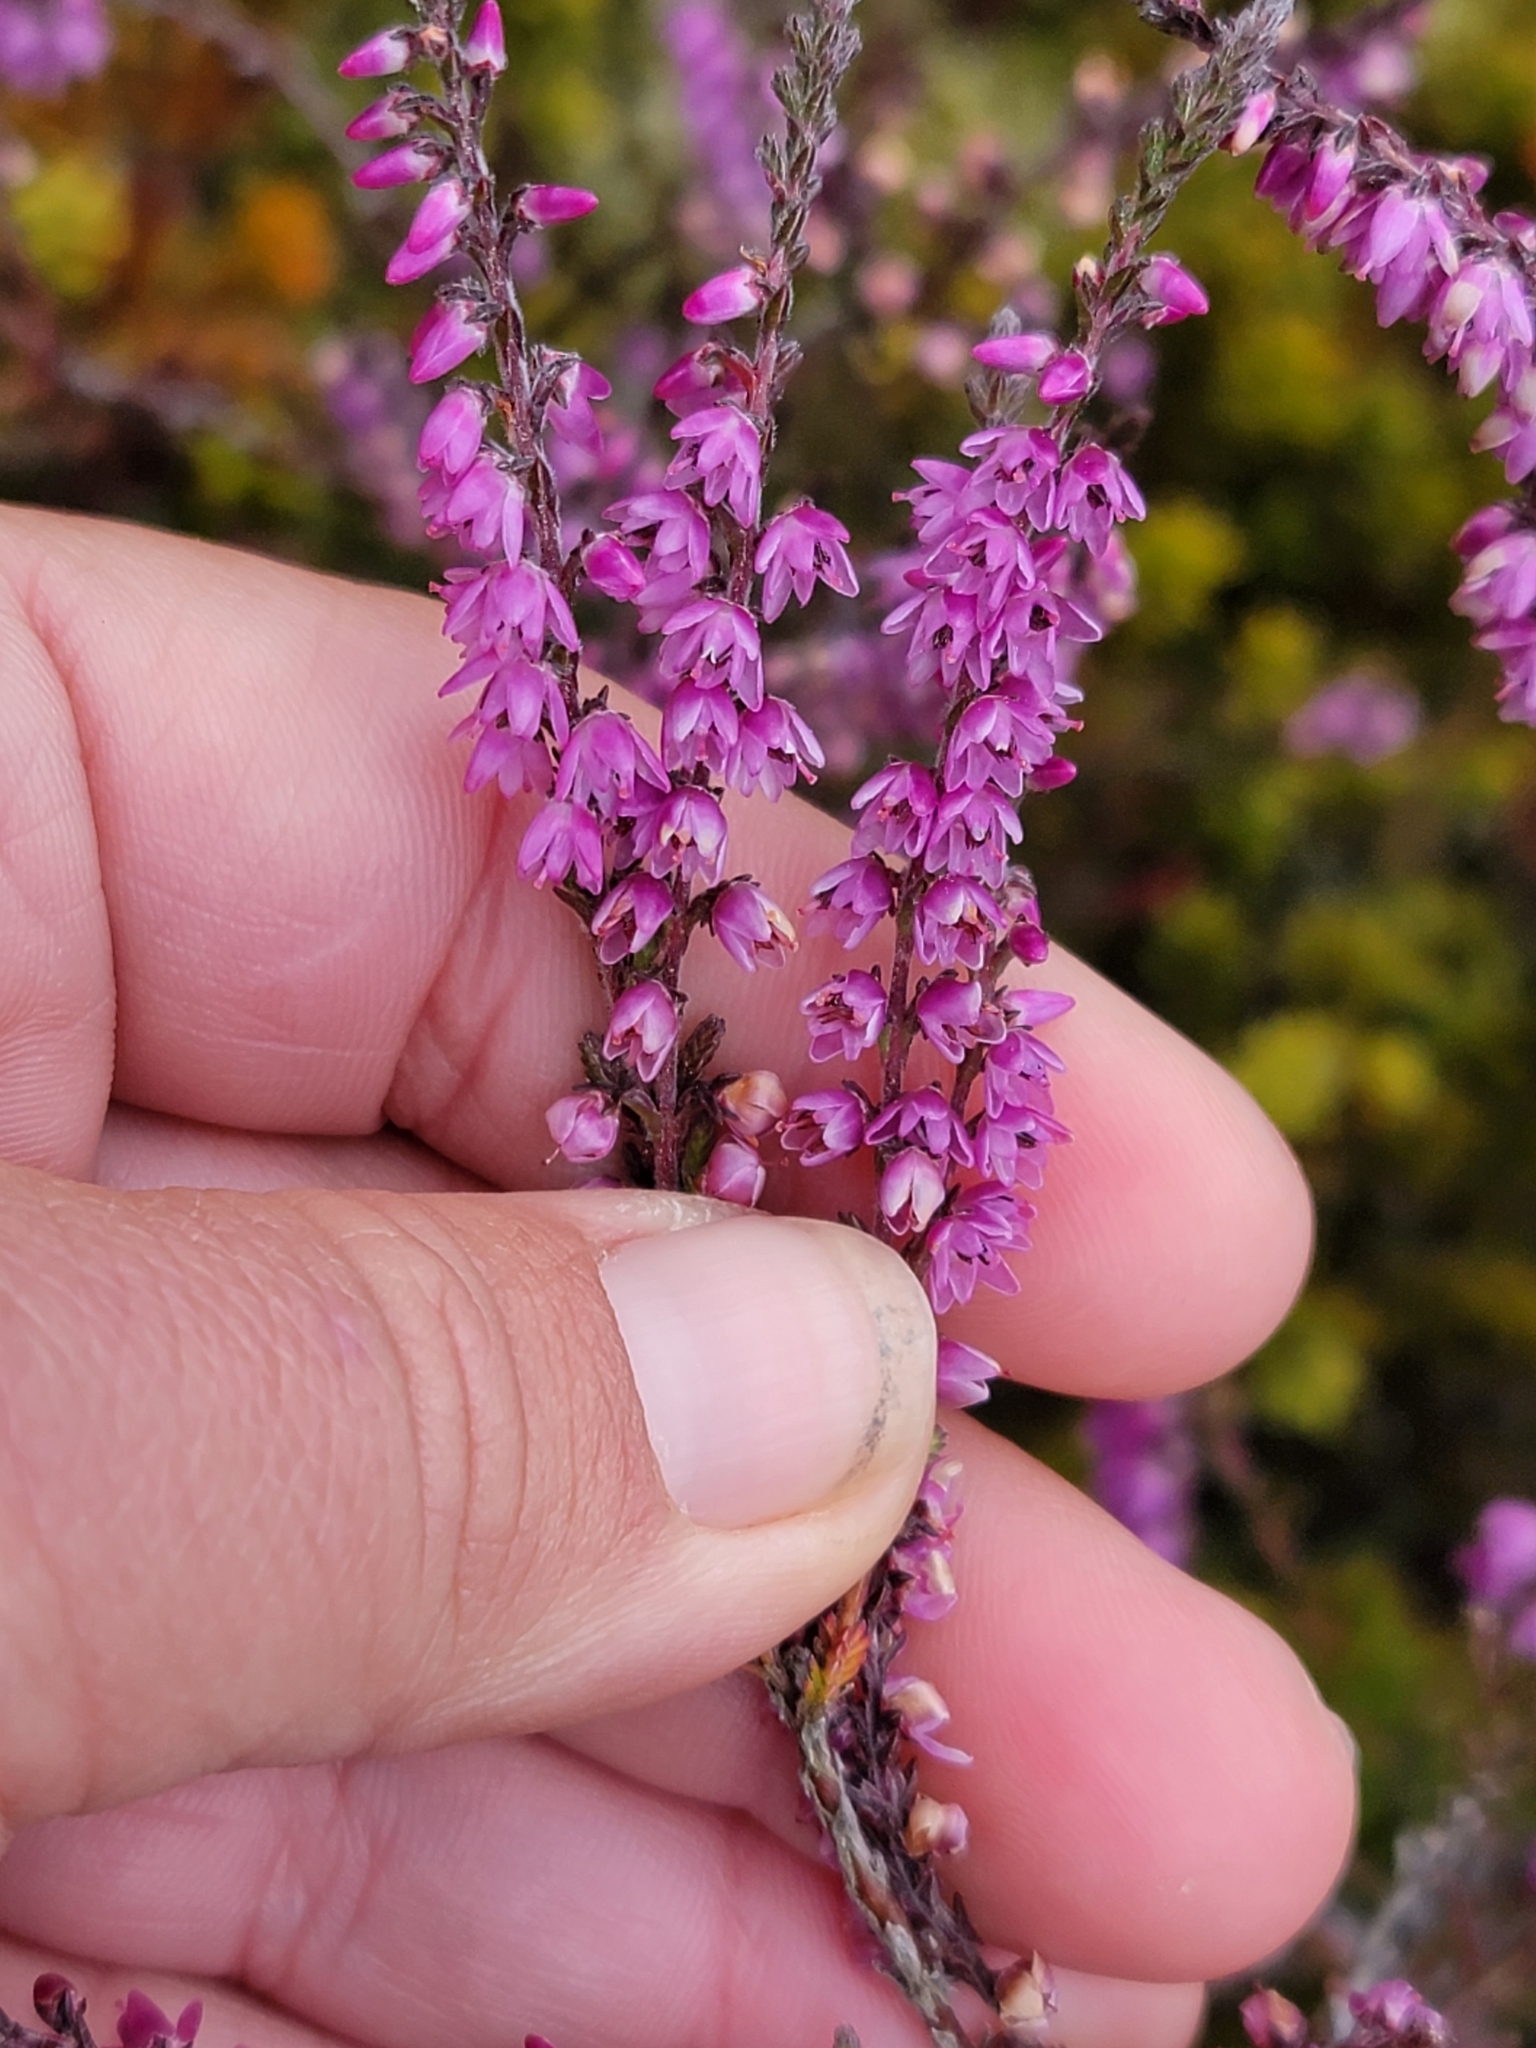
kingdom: Plantae
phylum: Tracheophyta
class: Magnoliopsida
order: Ericales
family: Ericaceae
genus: Calluna
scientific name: Calluna vulgaris
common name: Heather
